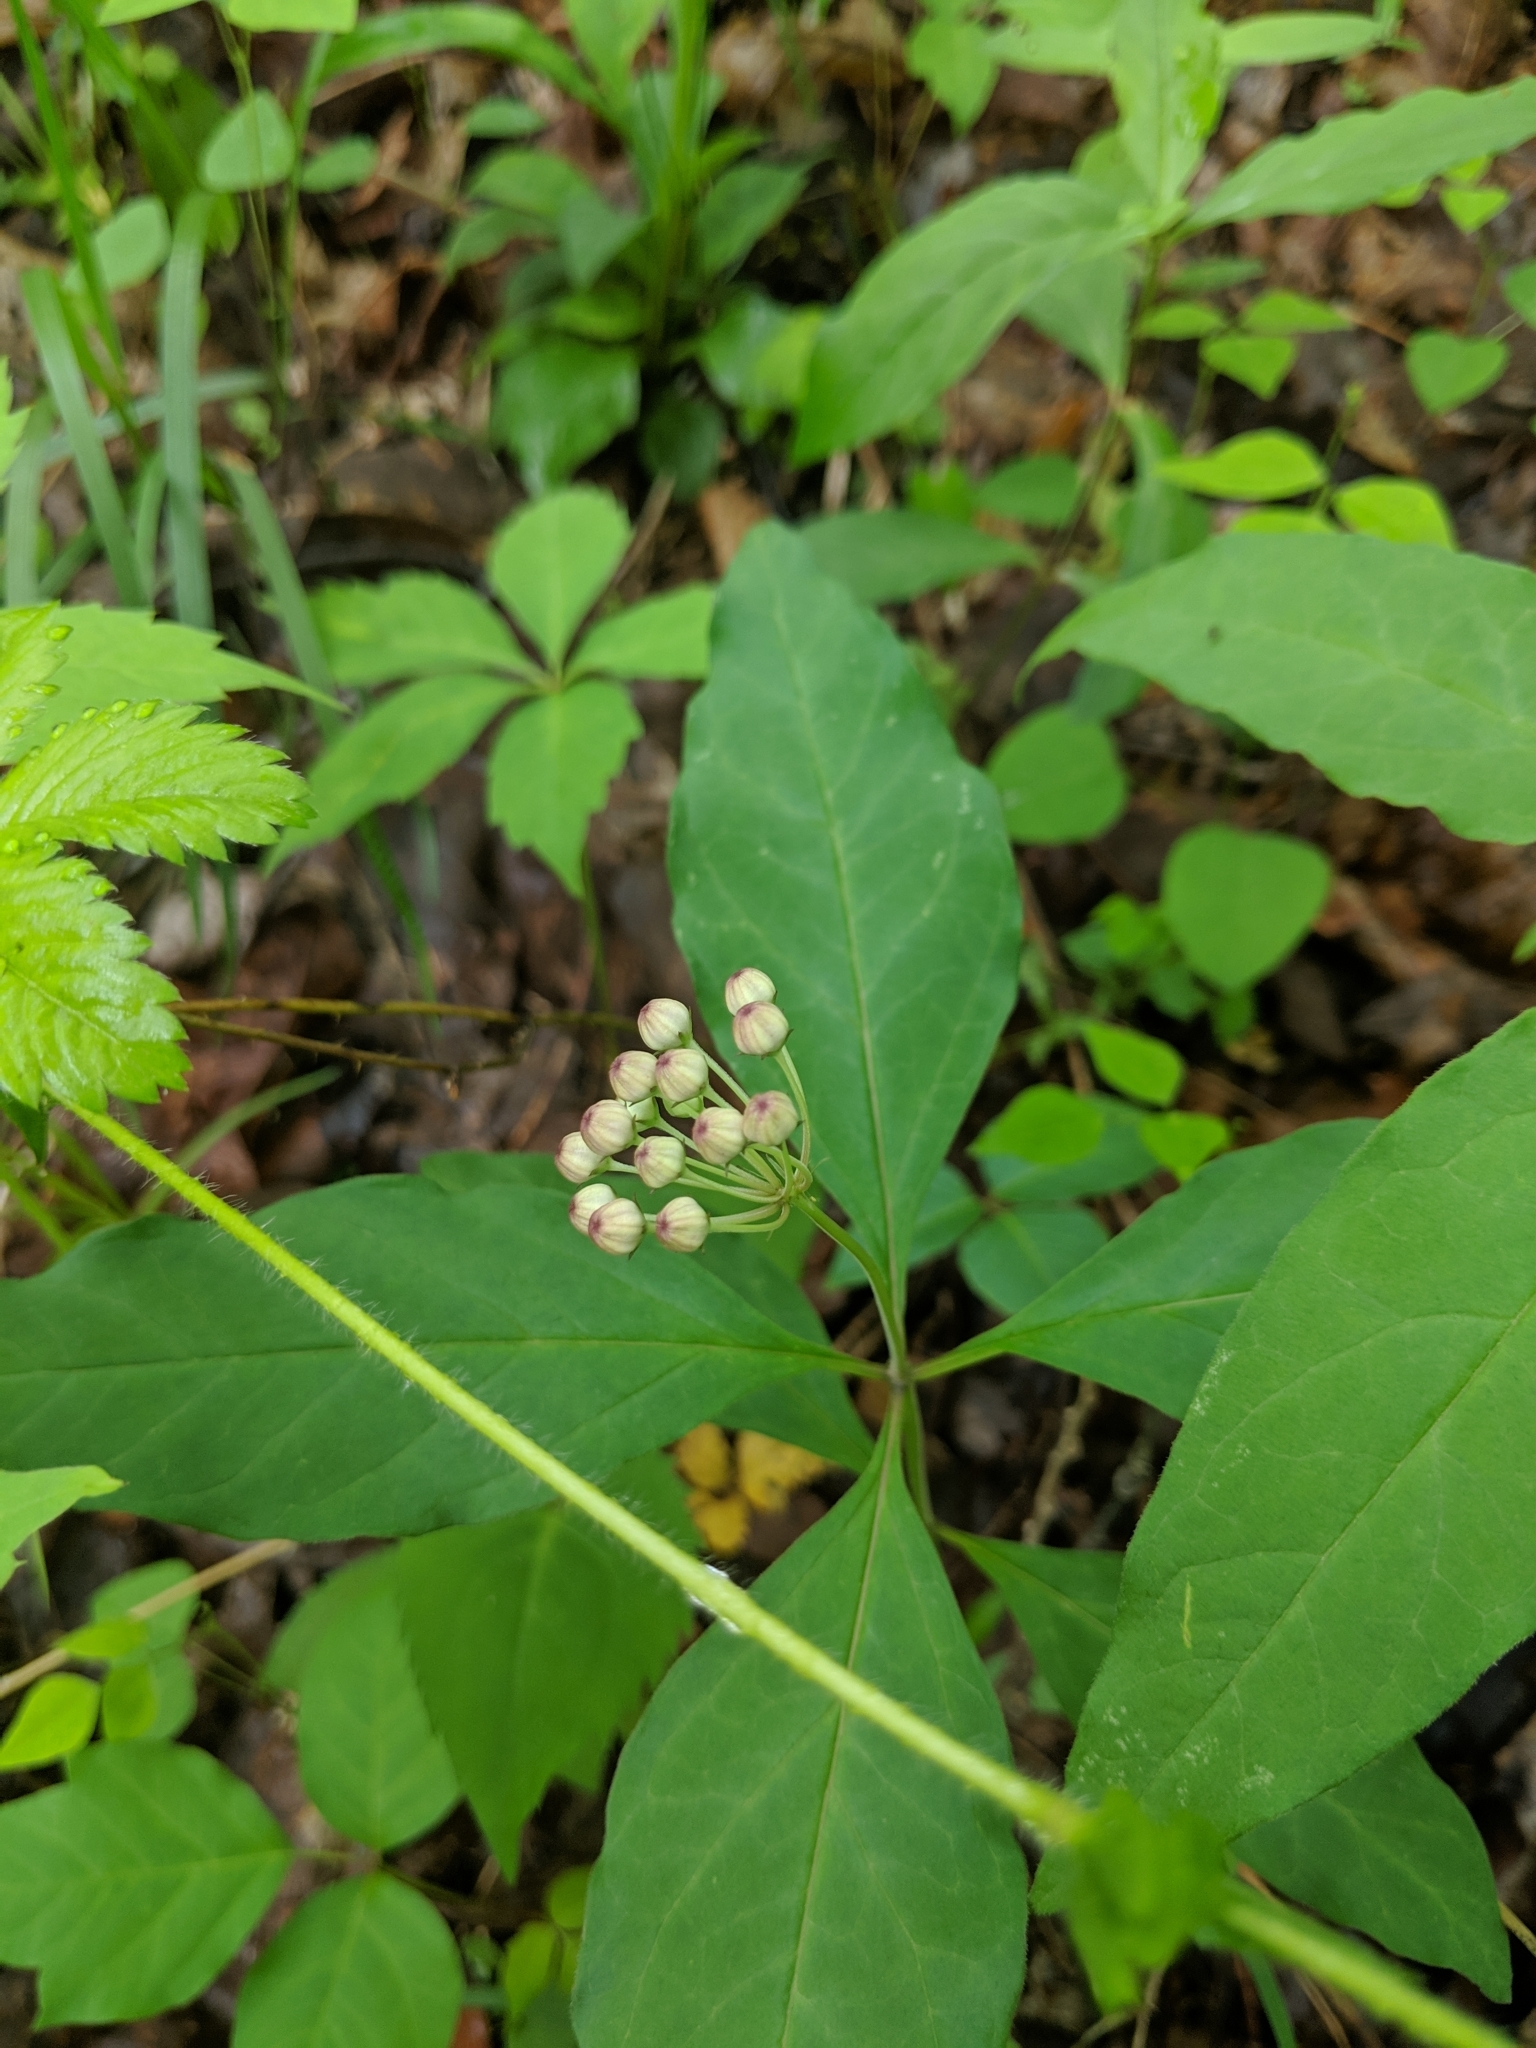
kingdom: Plantae
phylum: Tracheophyta
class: Magnoliopsida
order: Gentianales
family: Apocynaceae
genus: Asclepias
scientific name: Asclepias quadrifolia
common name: Whorled milkweed
